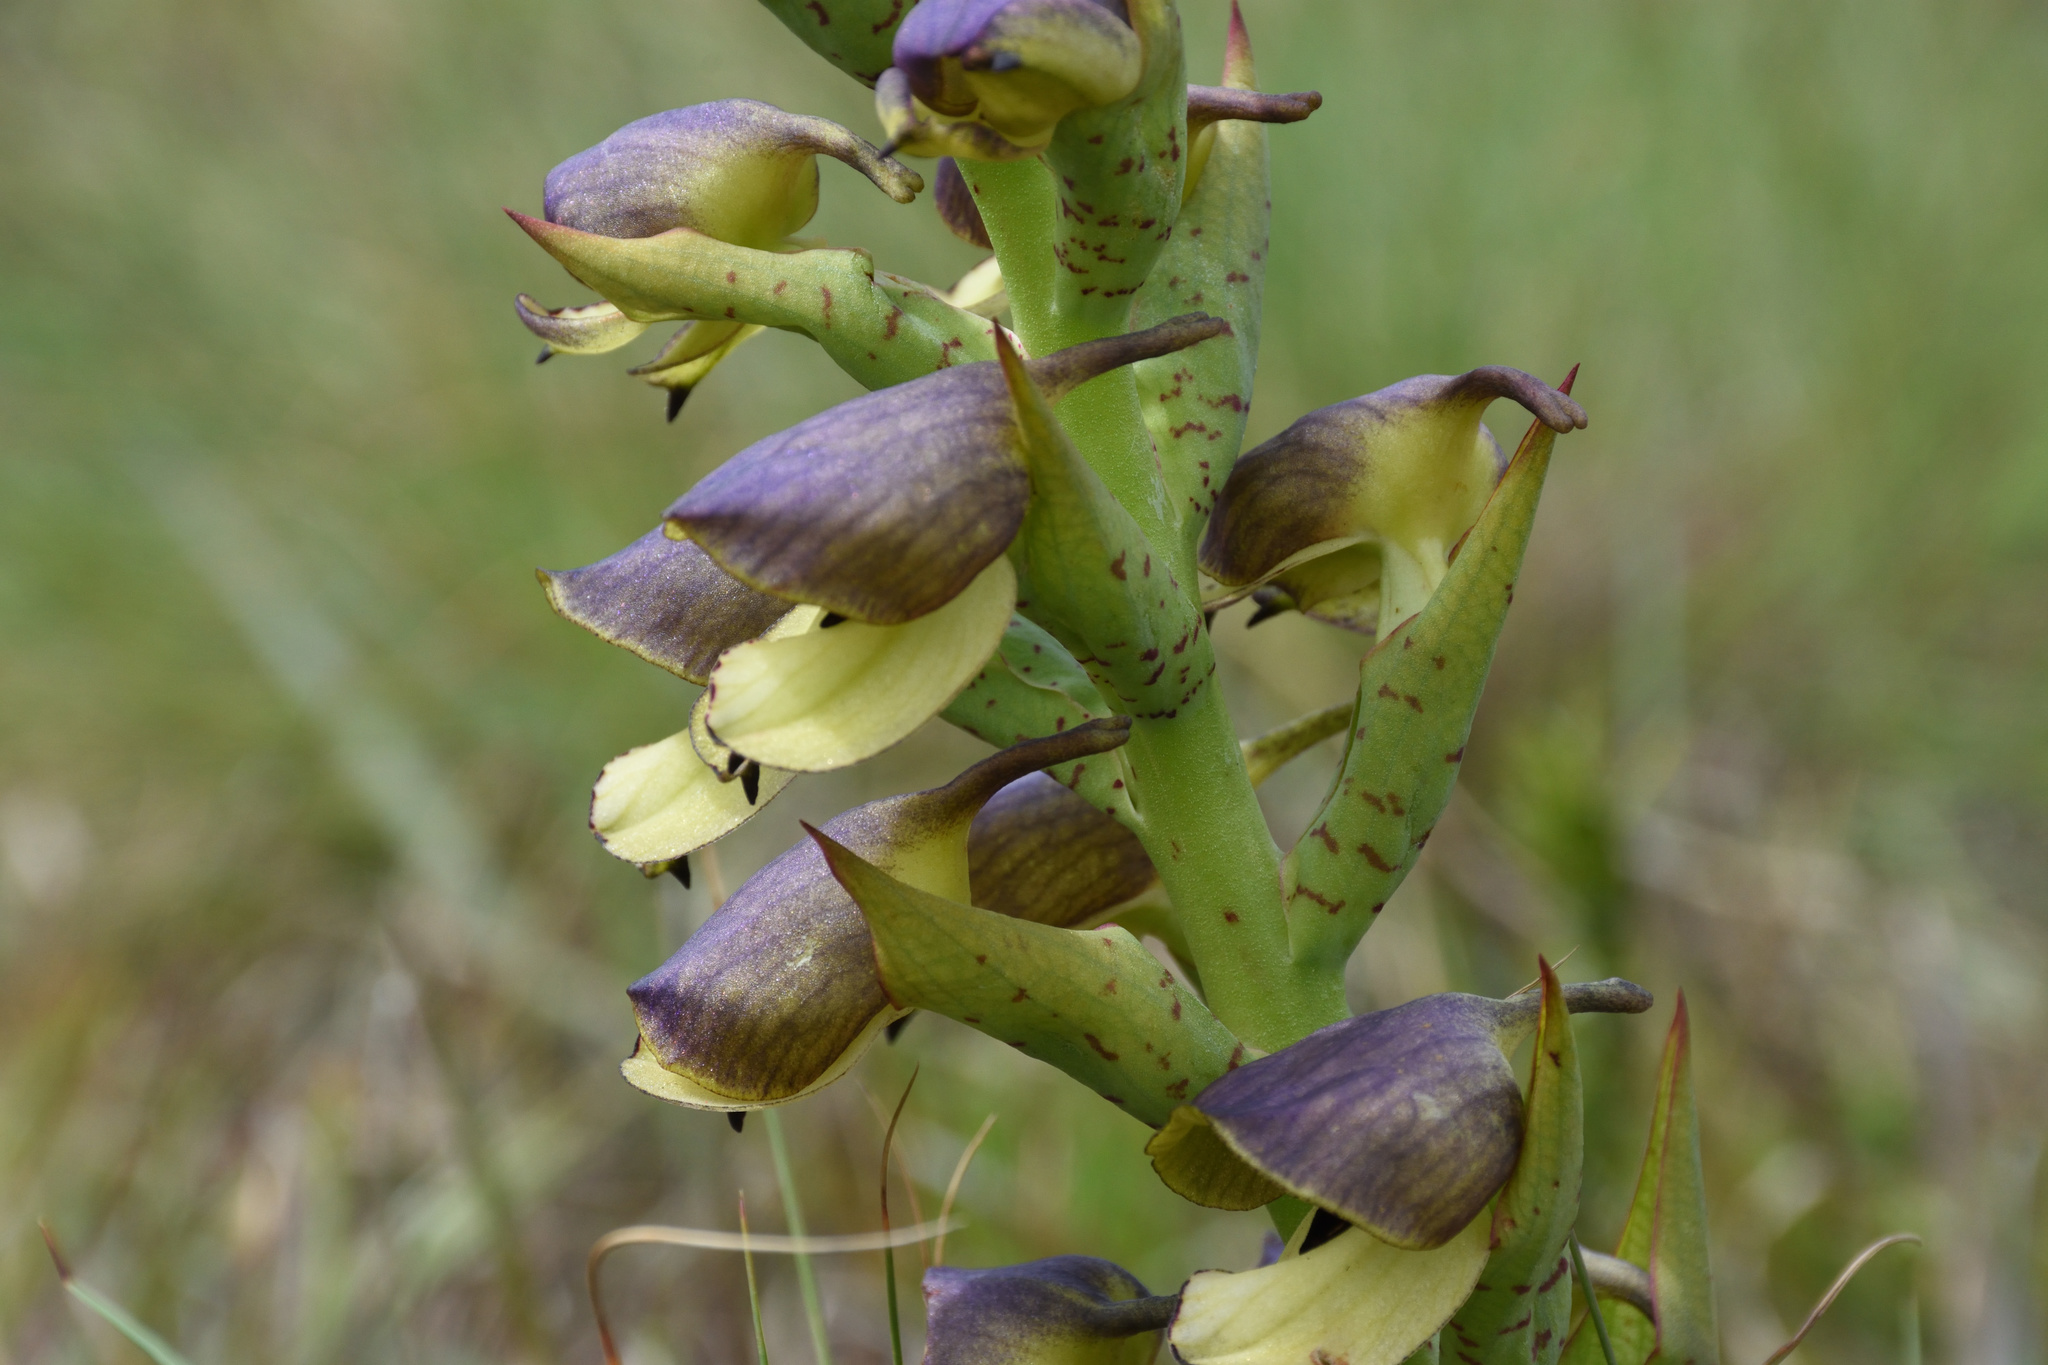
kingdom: Plantae
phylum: Tracheophyta
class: Liliopsida
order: Asparagales
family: Orchidaceae
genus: Disa
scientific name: Disa cornuta
